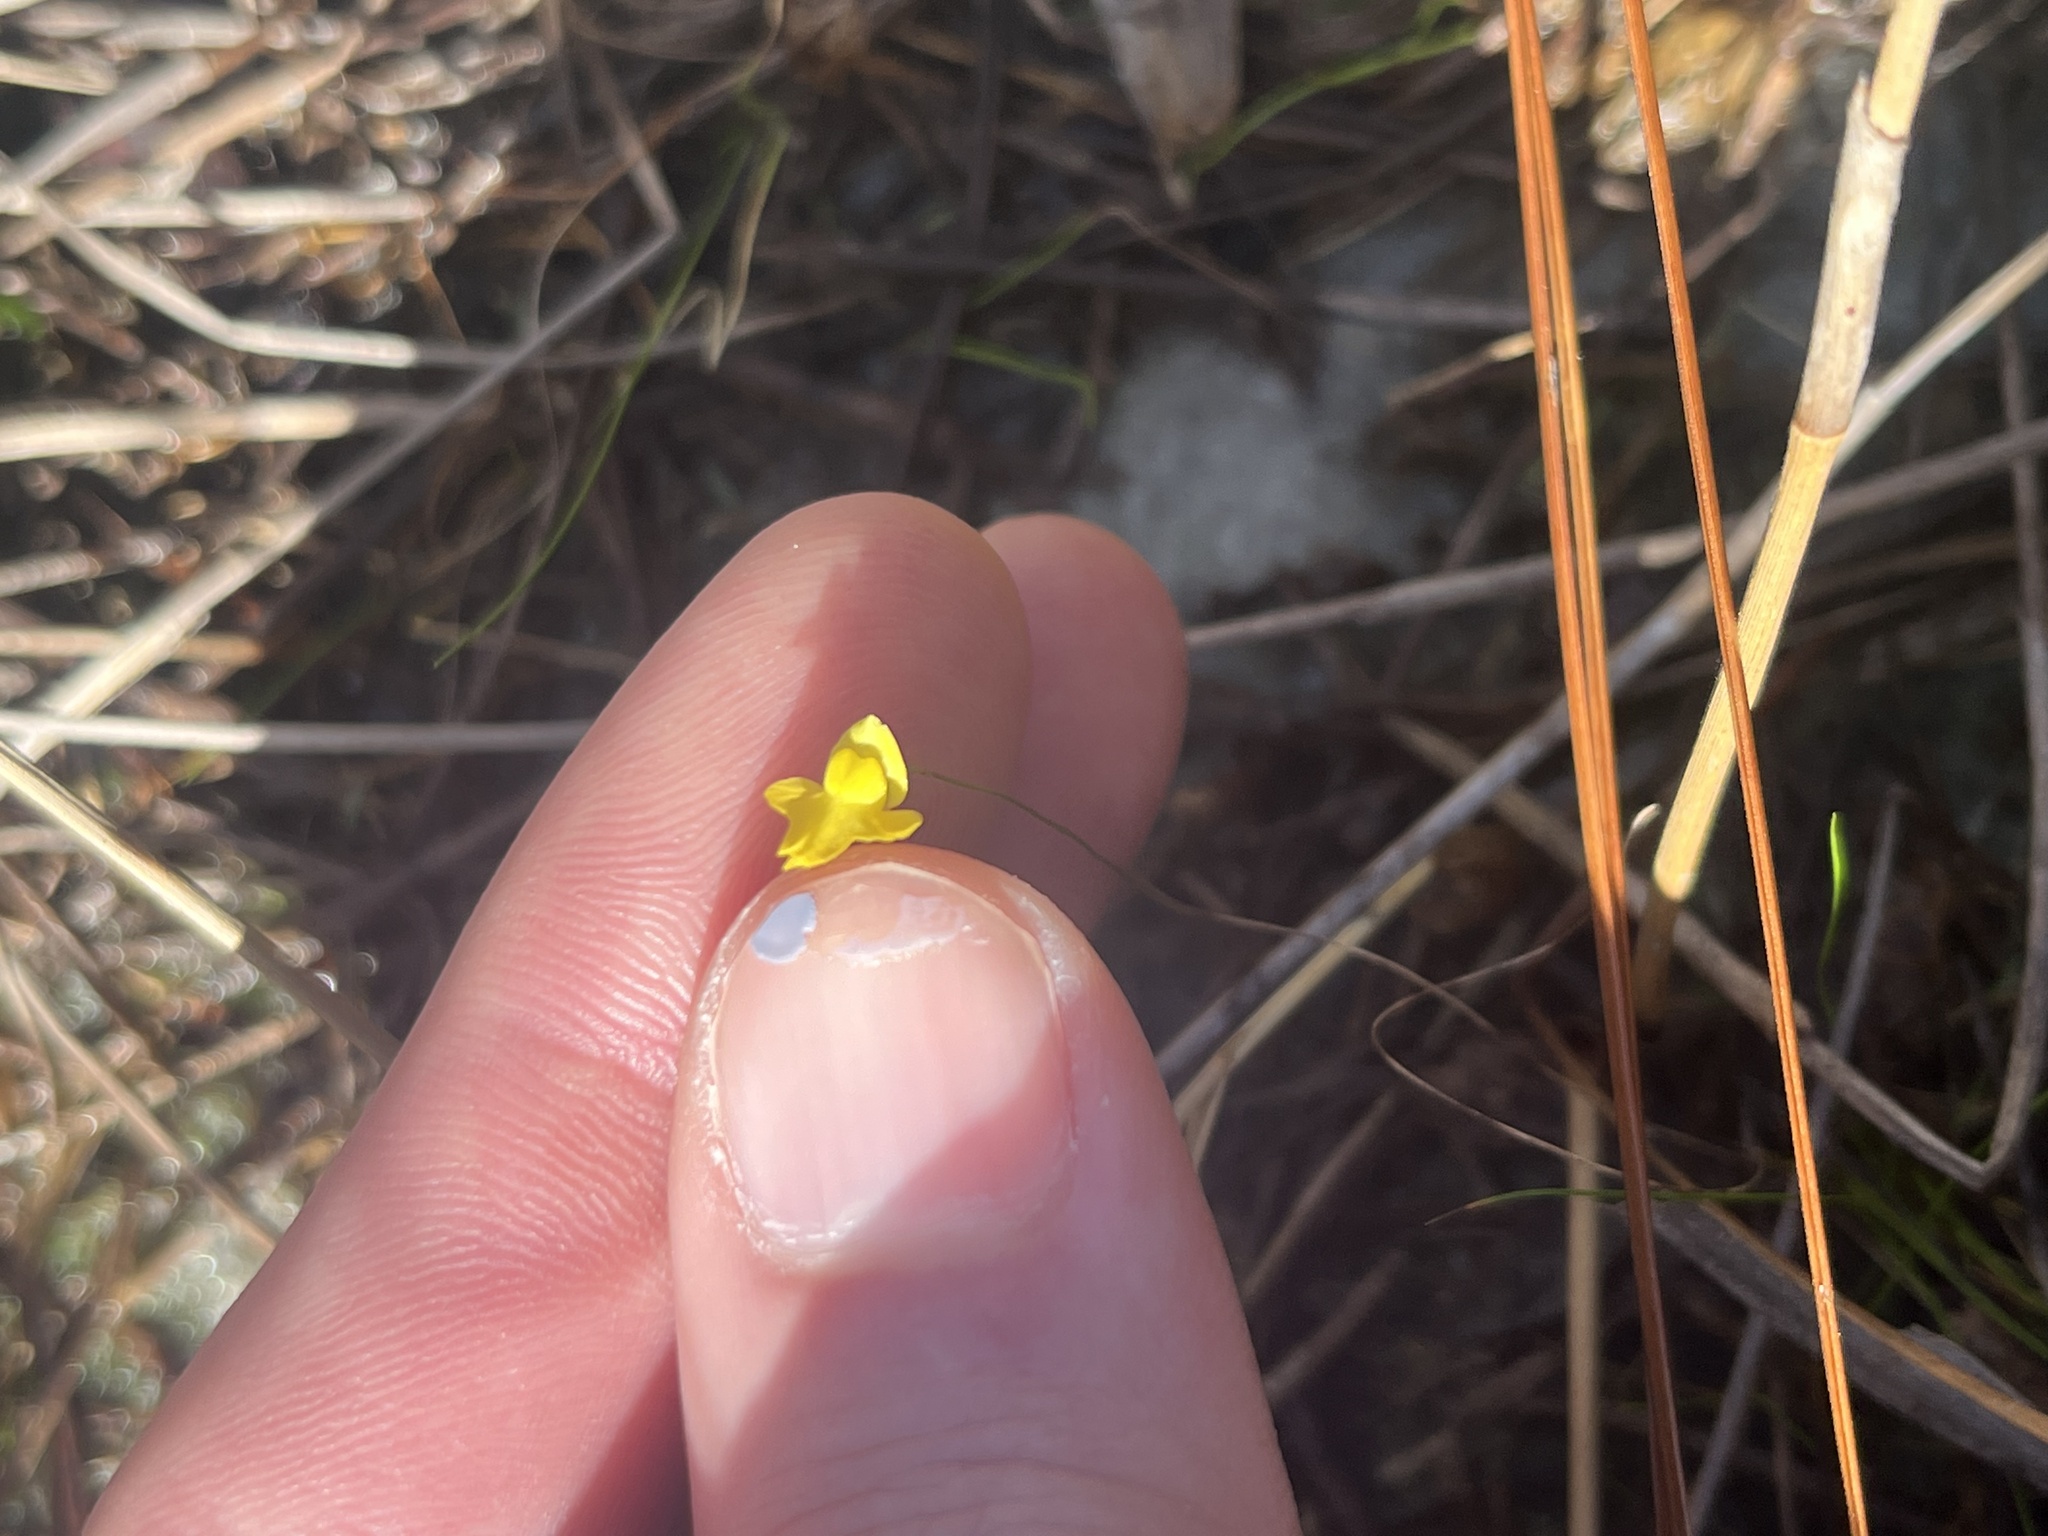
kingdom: Plantae
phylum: Tracheophyta
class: Magnoliopsida
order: Lamiales
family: Lentibulariaceae
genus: Utricularia
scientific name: Utricularia subulata
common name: Tiny bladderwort
